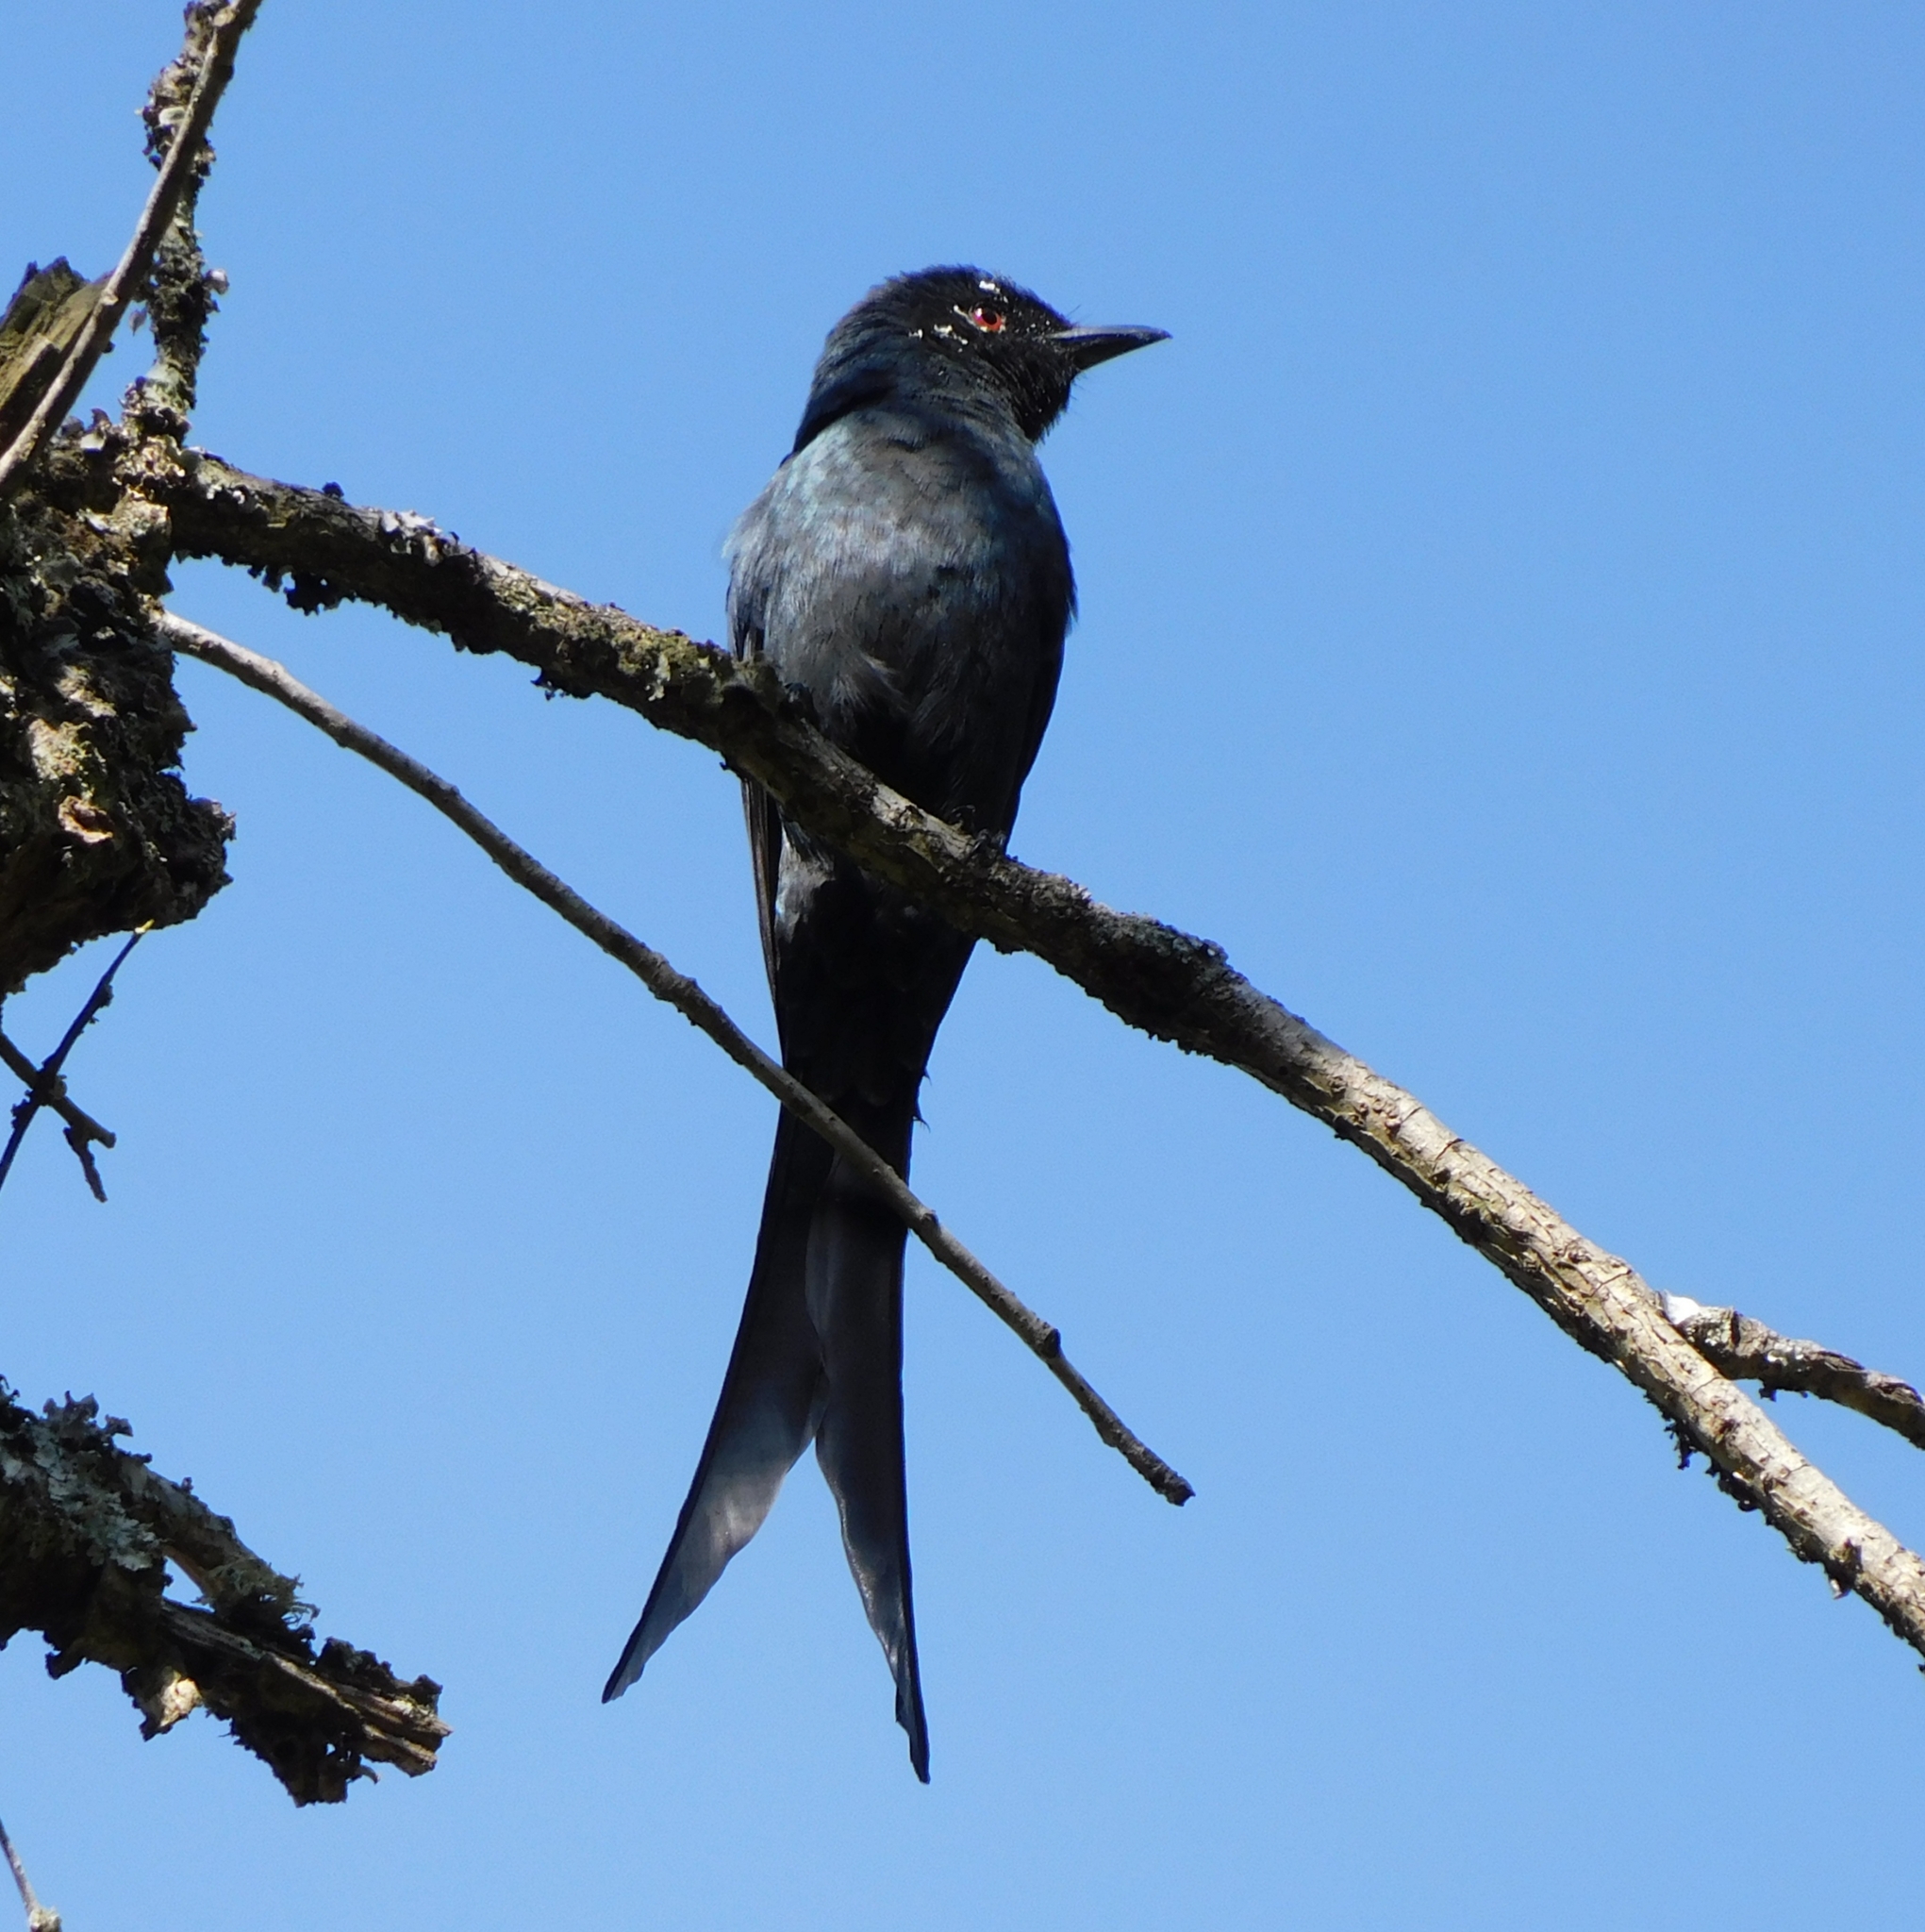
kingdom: Animalia
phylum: Chordata
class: Aves
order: Passeriformes
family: Dicruridae
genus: Dicrurus
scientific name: Dicrurus leucophaeus
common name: Ashy drongo
